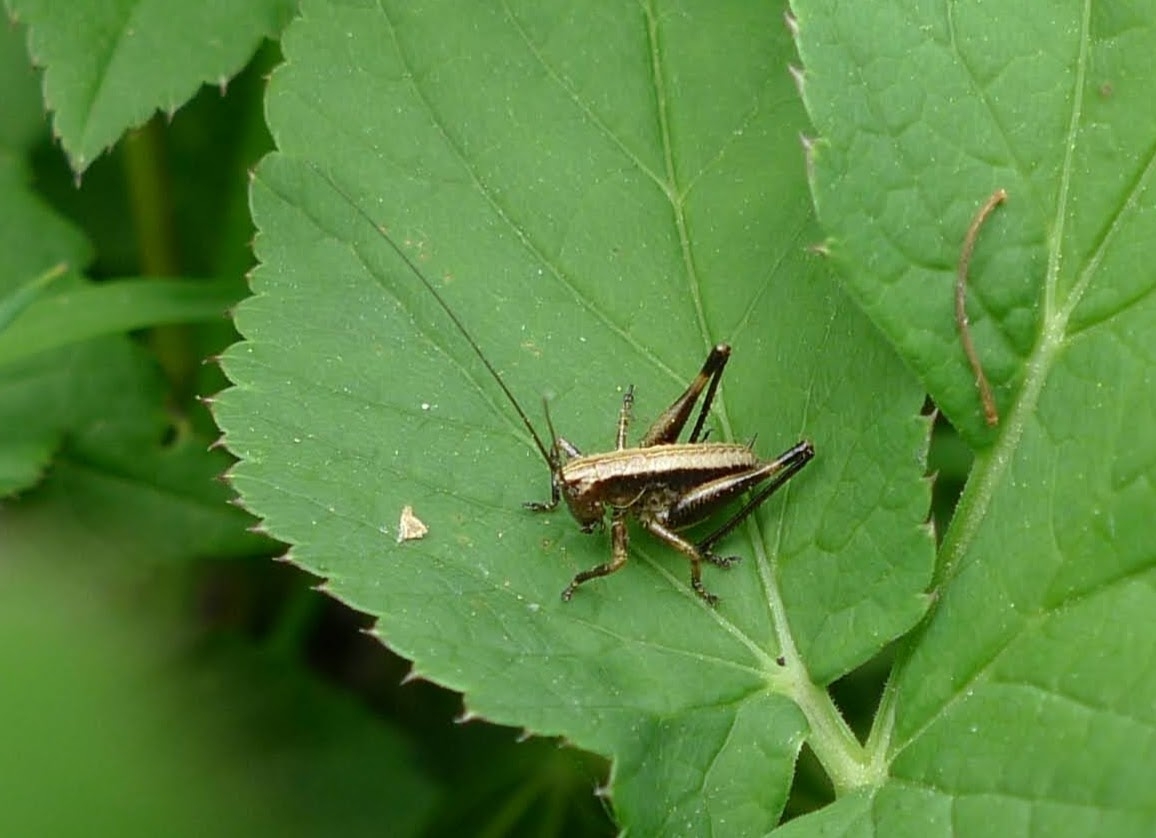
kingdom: Animalia
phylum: Arthropoda
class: Insecta
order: Orthoptera
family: Tettigoniidae
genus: Pholidoptera
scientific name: Pholidoptera griseoaptera
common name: Dark bush-cricket
